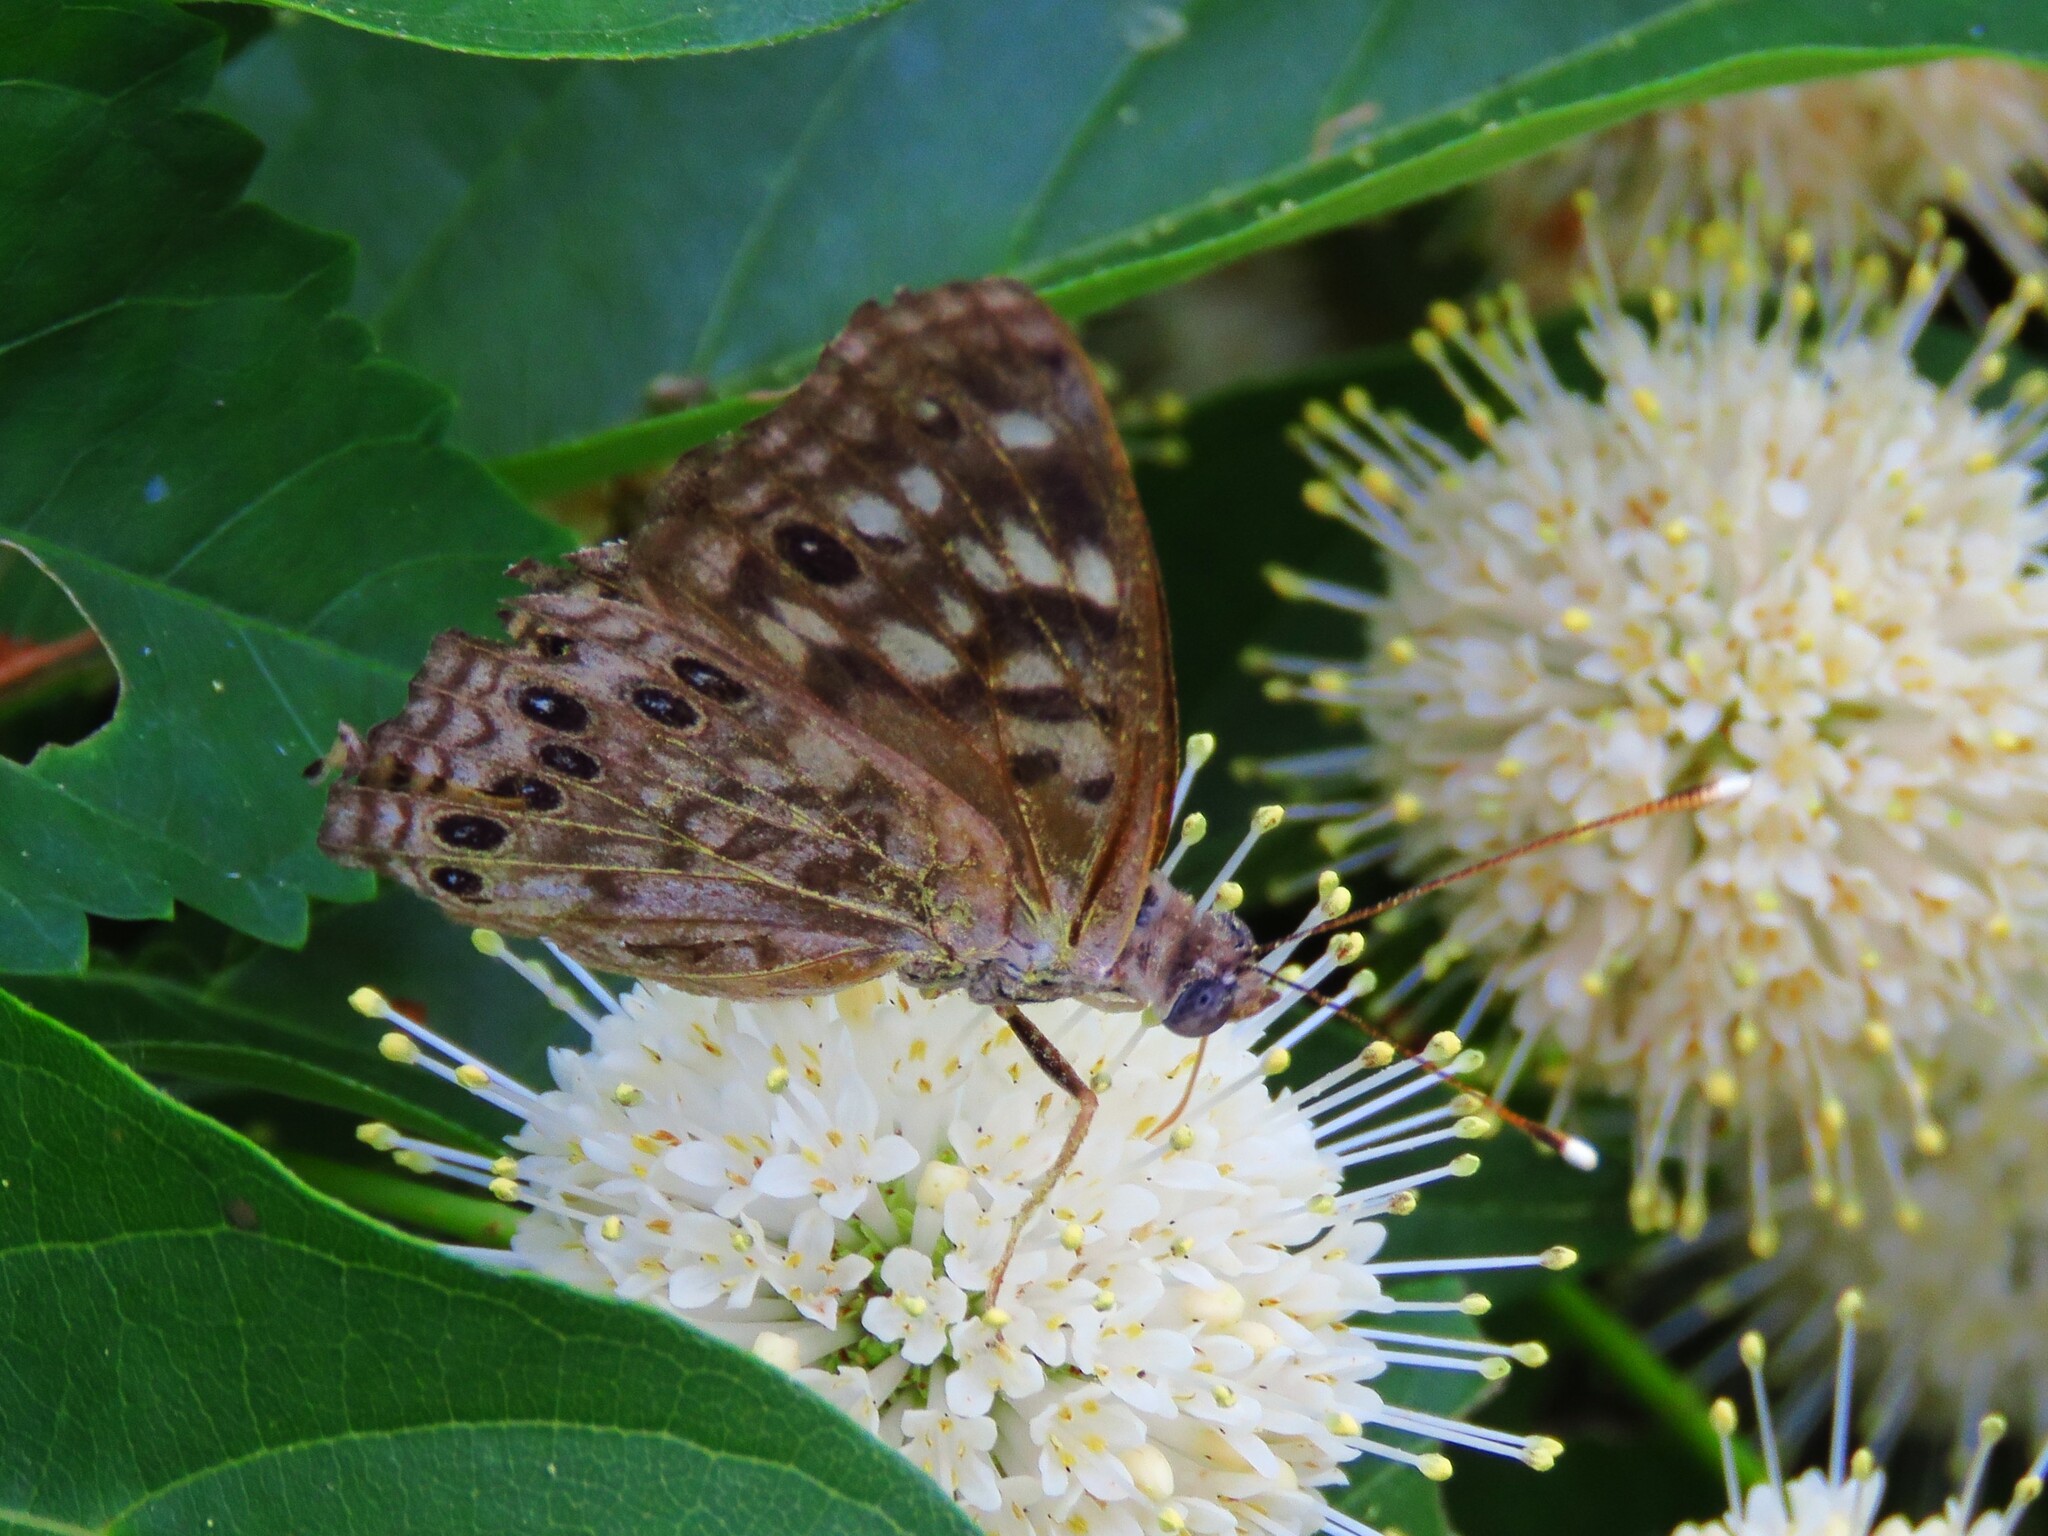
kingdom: Animalia
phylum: Arthropoda
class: Insecta
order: Lepidoptera
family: Nymphalidae
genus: Asterocampa
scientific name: Asterocampa celtis
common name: Hackberry emperor
